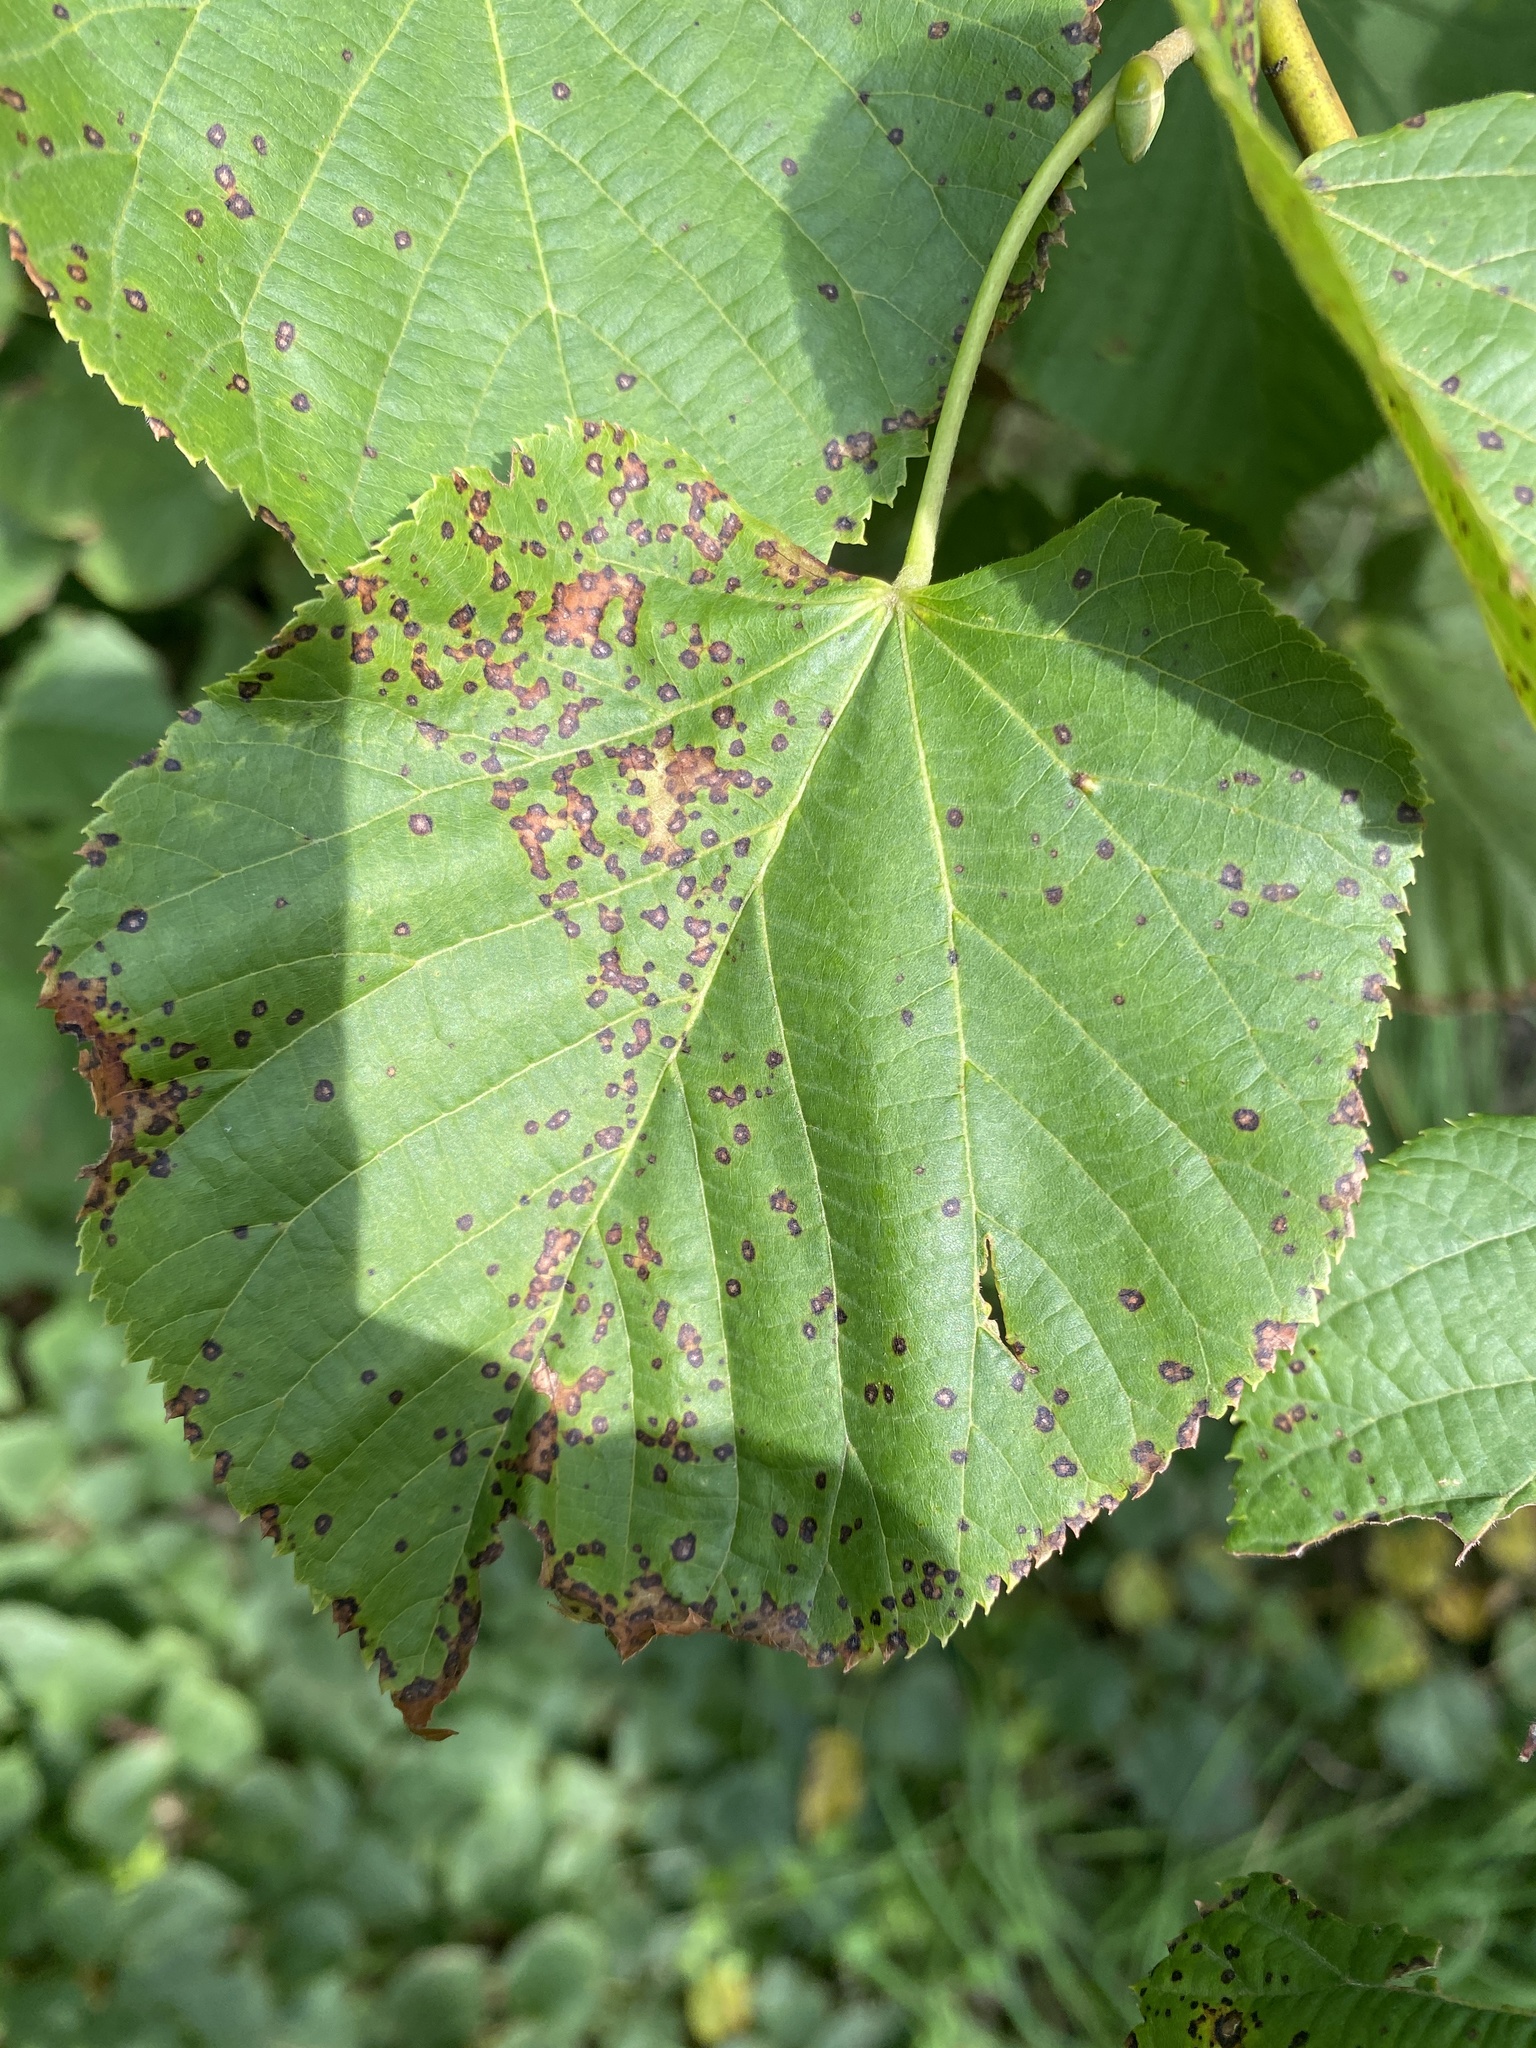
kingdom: Fungi
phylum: Ascomycota
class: Dothideomycetes
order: Mycosphaerellales
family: Mycosphaerellaceae
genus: Paracercosporidium
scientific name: Paracercosporidium microsorum
